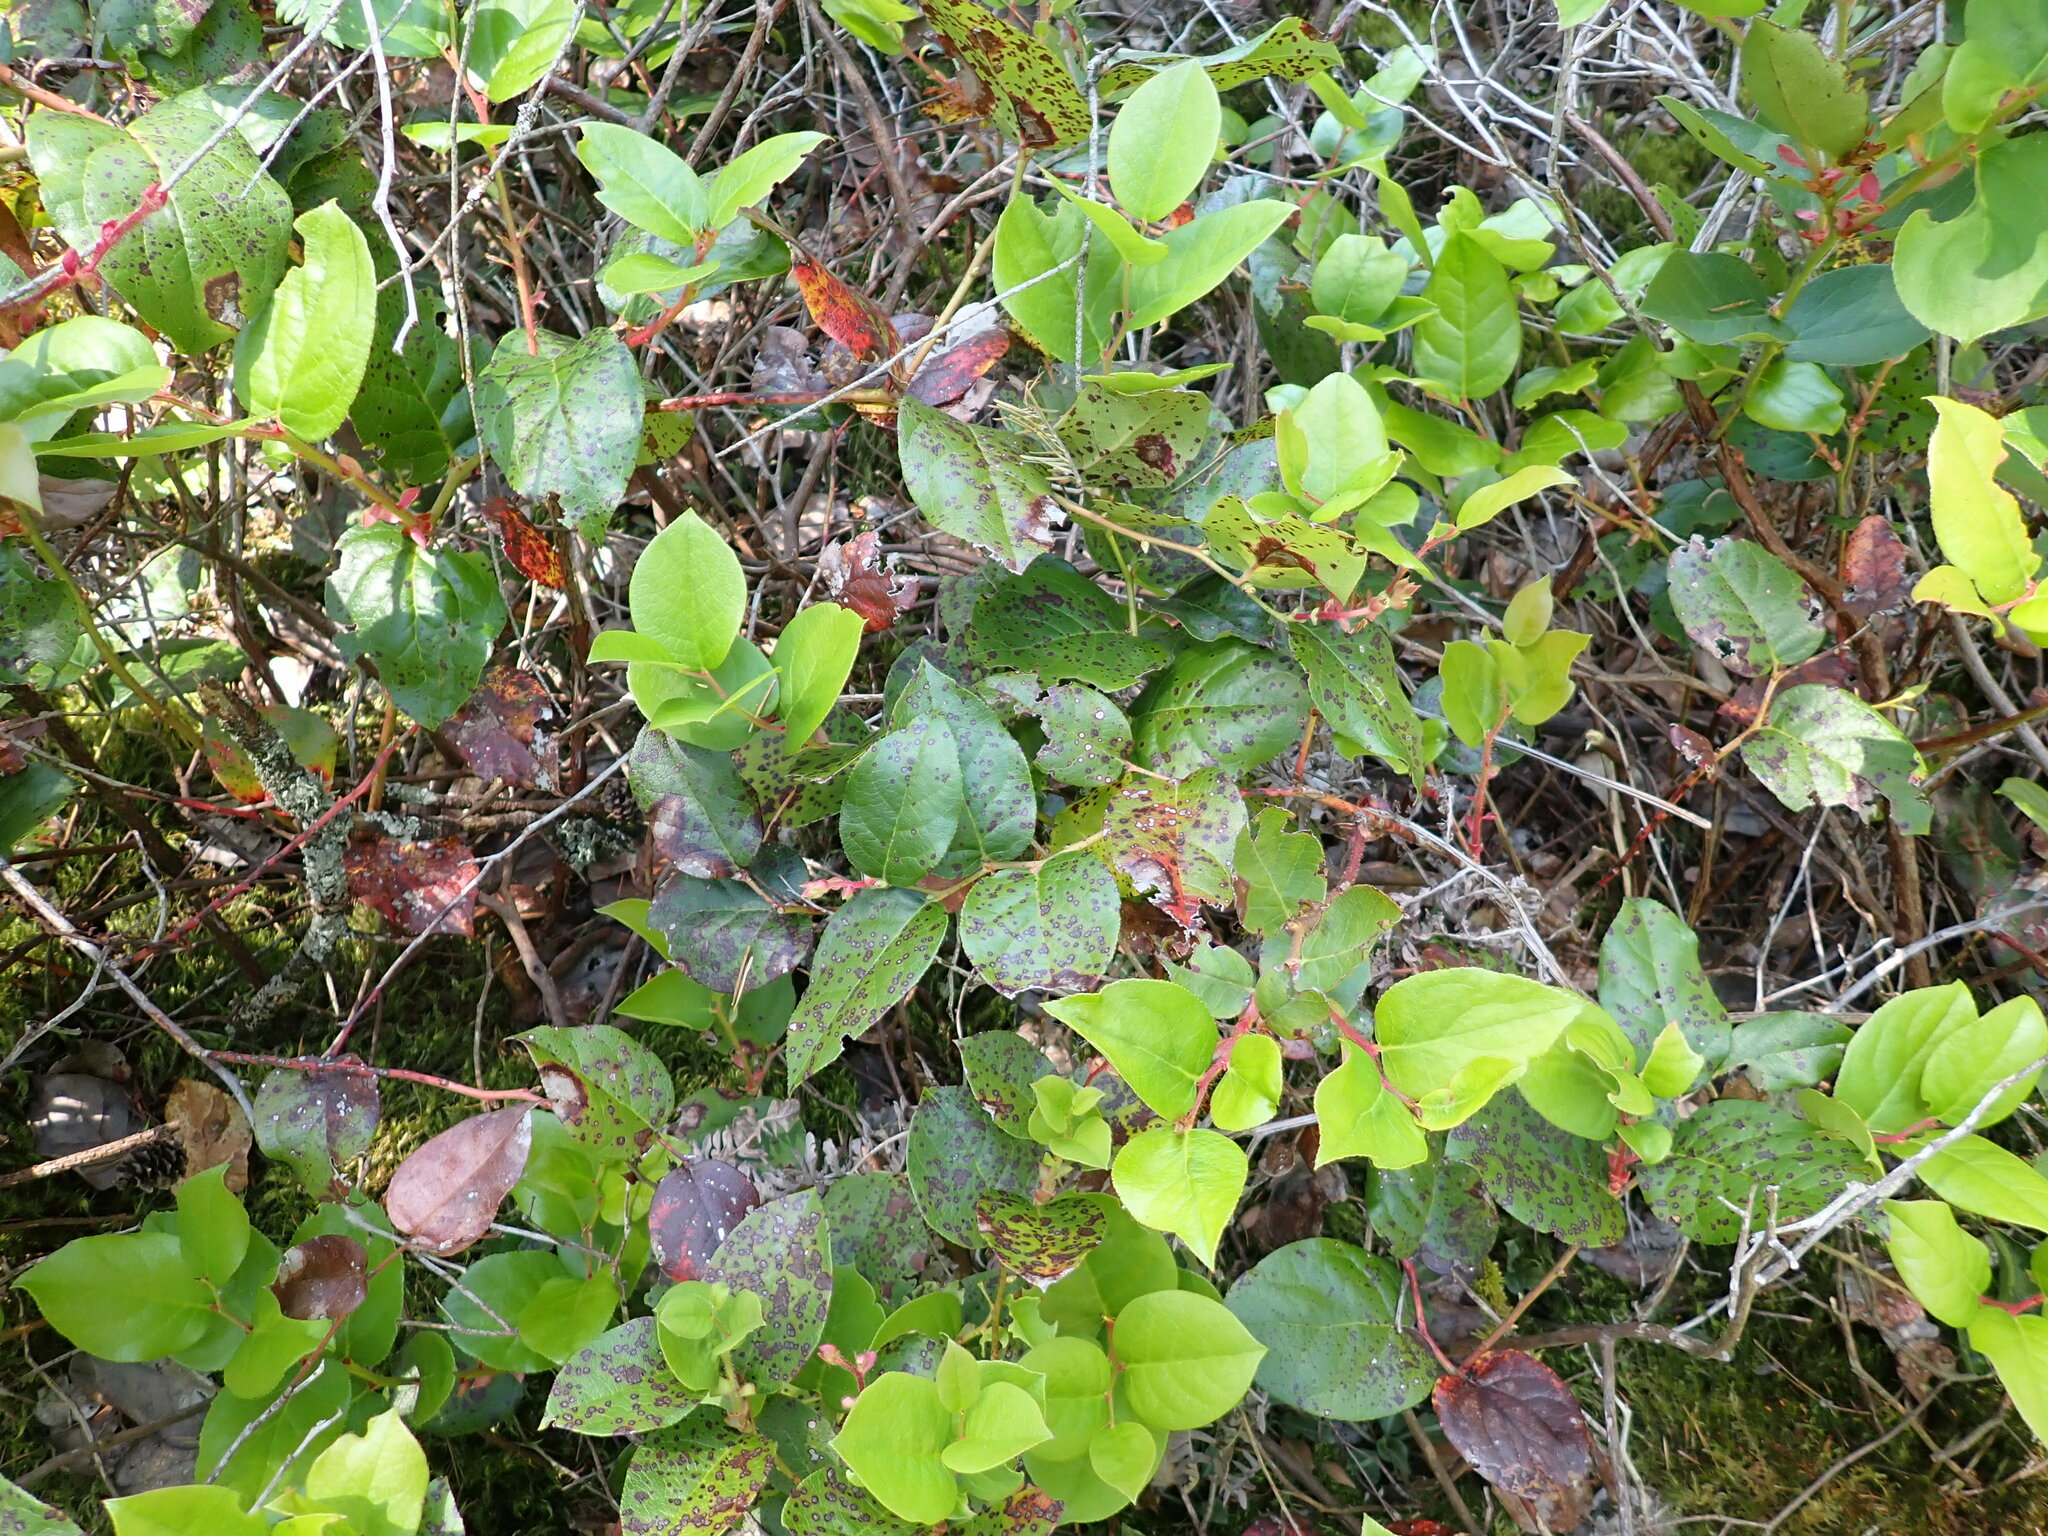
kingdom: Plantae
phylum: Tracheophyta
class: Magnoliopsida
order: Ericales
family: Ericaceae
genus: Gaultheria
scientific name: Gaultheria shallon
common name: Shallon
